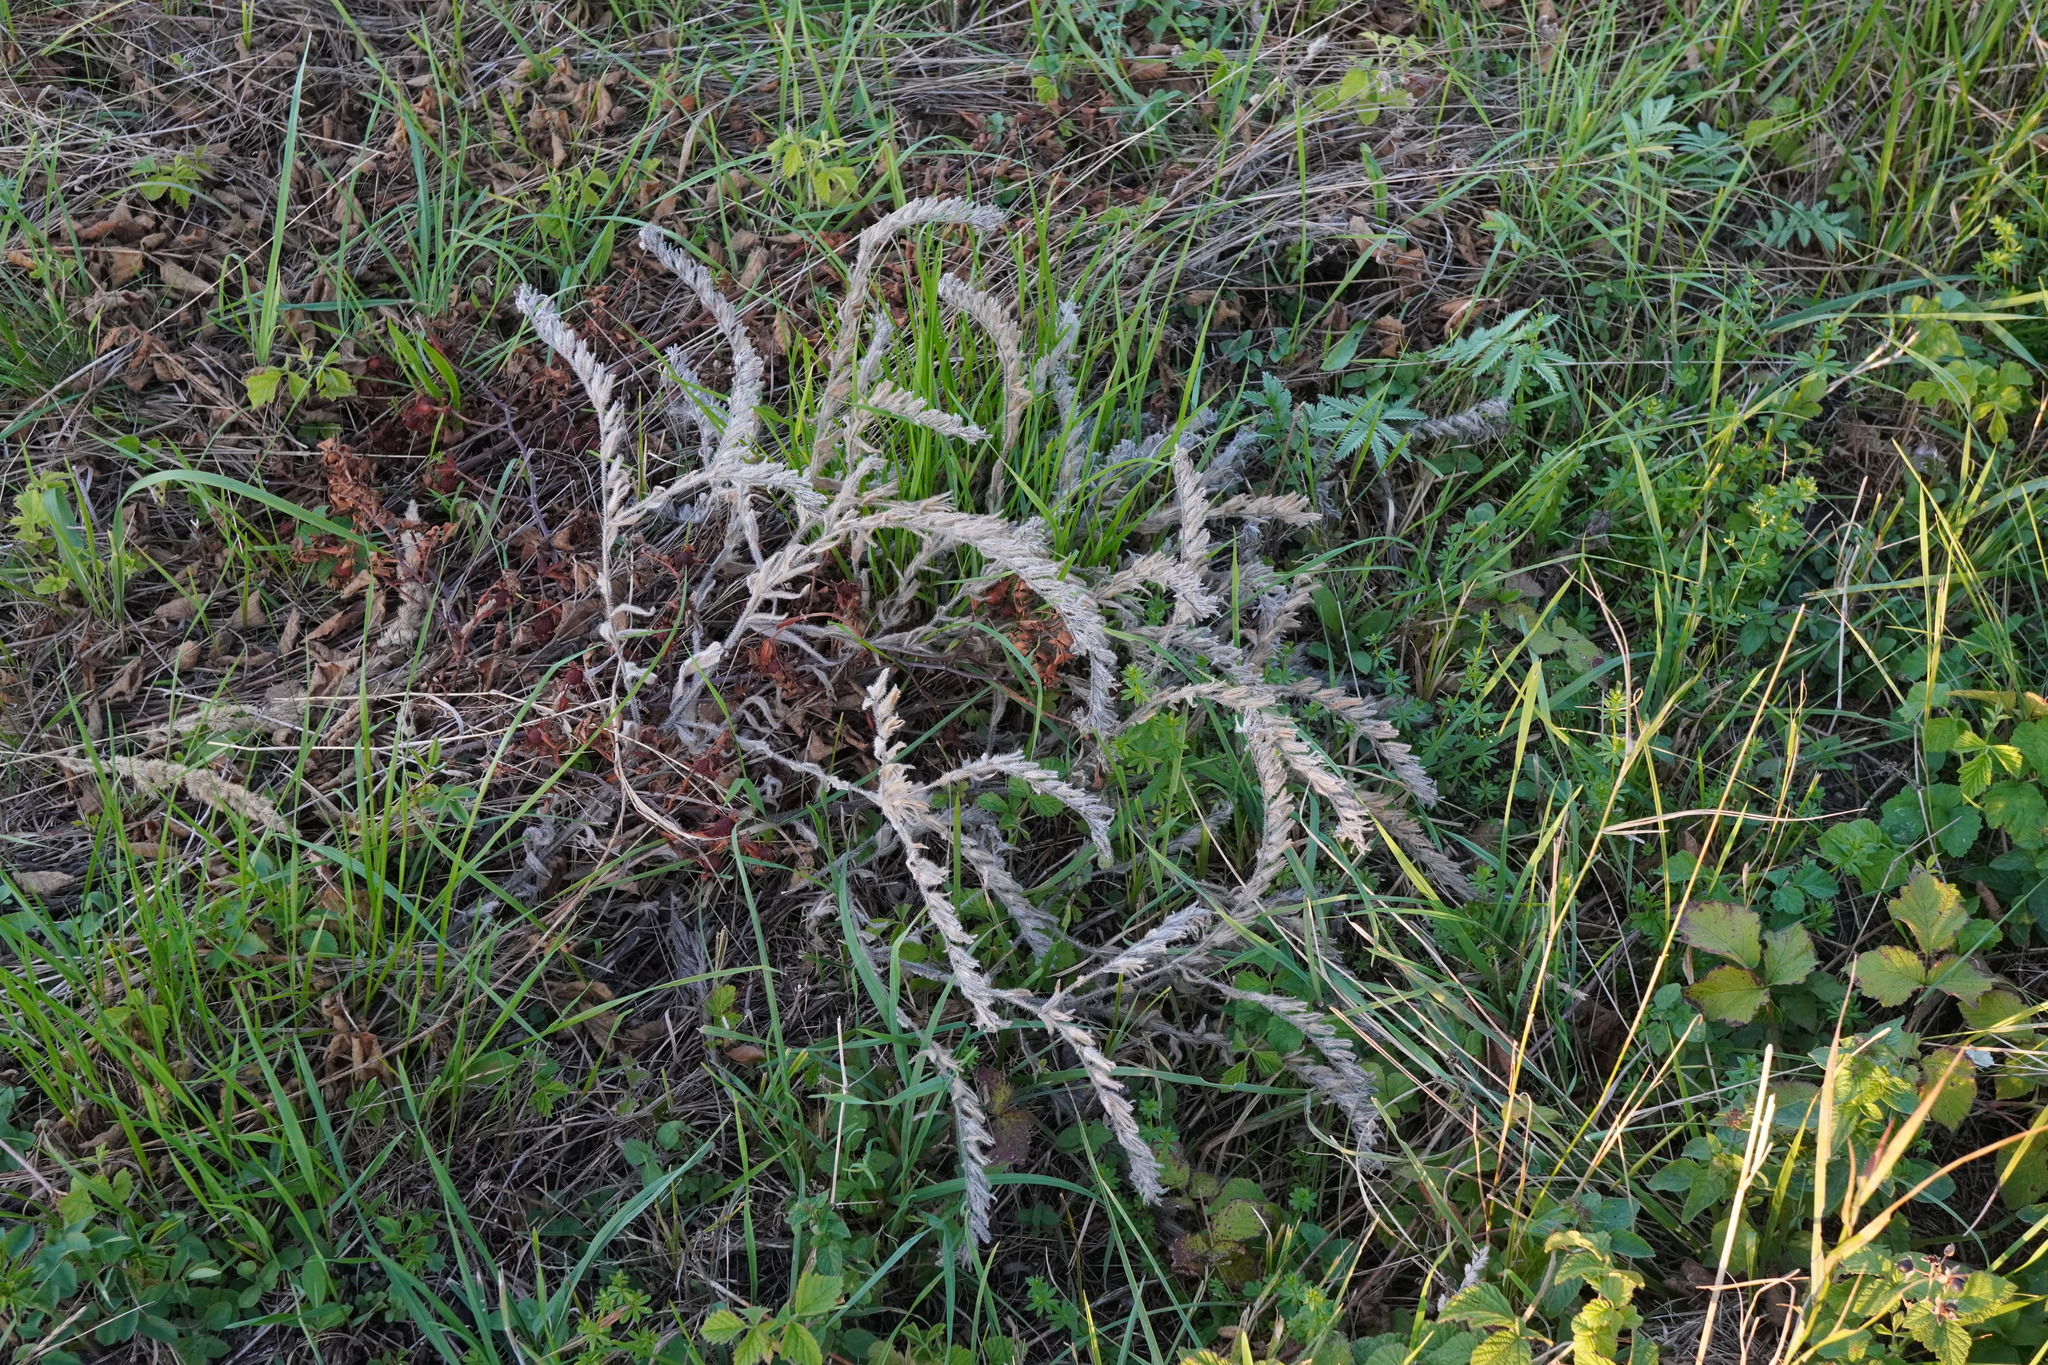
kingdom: Plantae
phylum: Tracheophyta
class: Magnoliopsida
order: Boraginales
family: Boraginaceae
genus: Onosma
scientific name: Onosma arenaria
